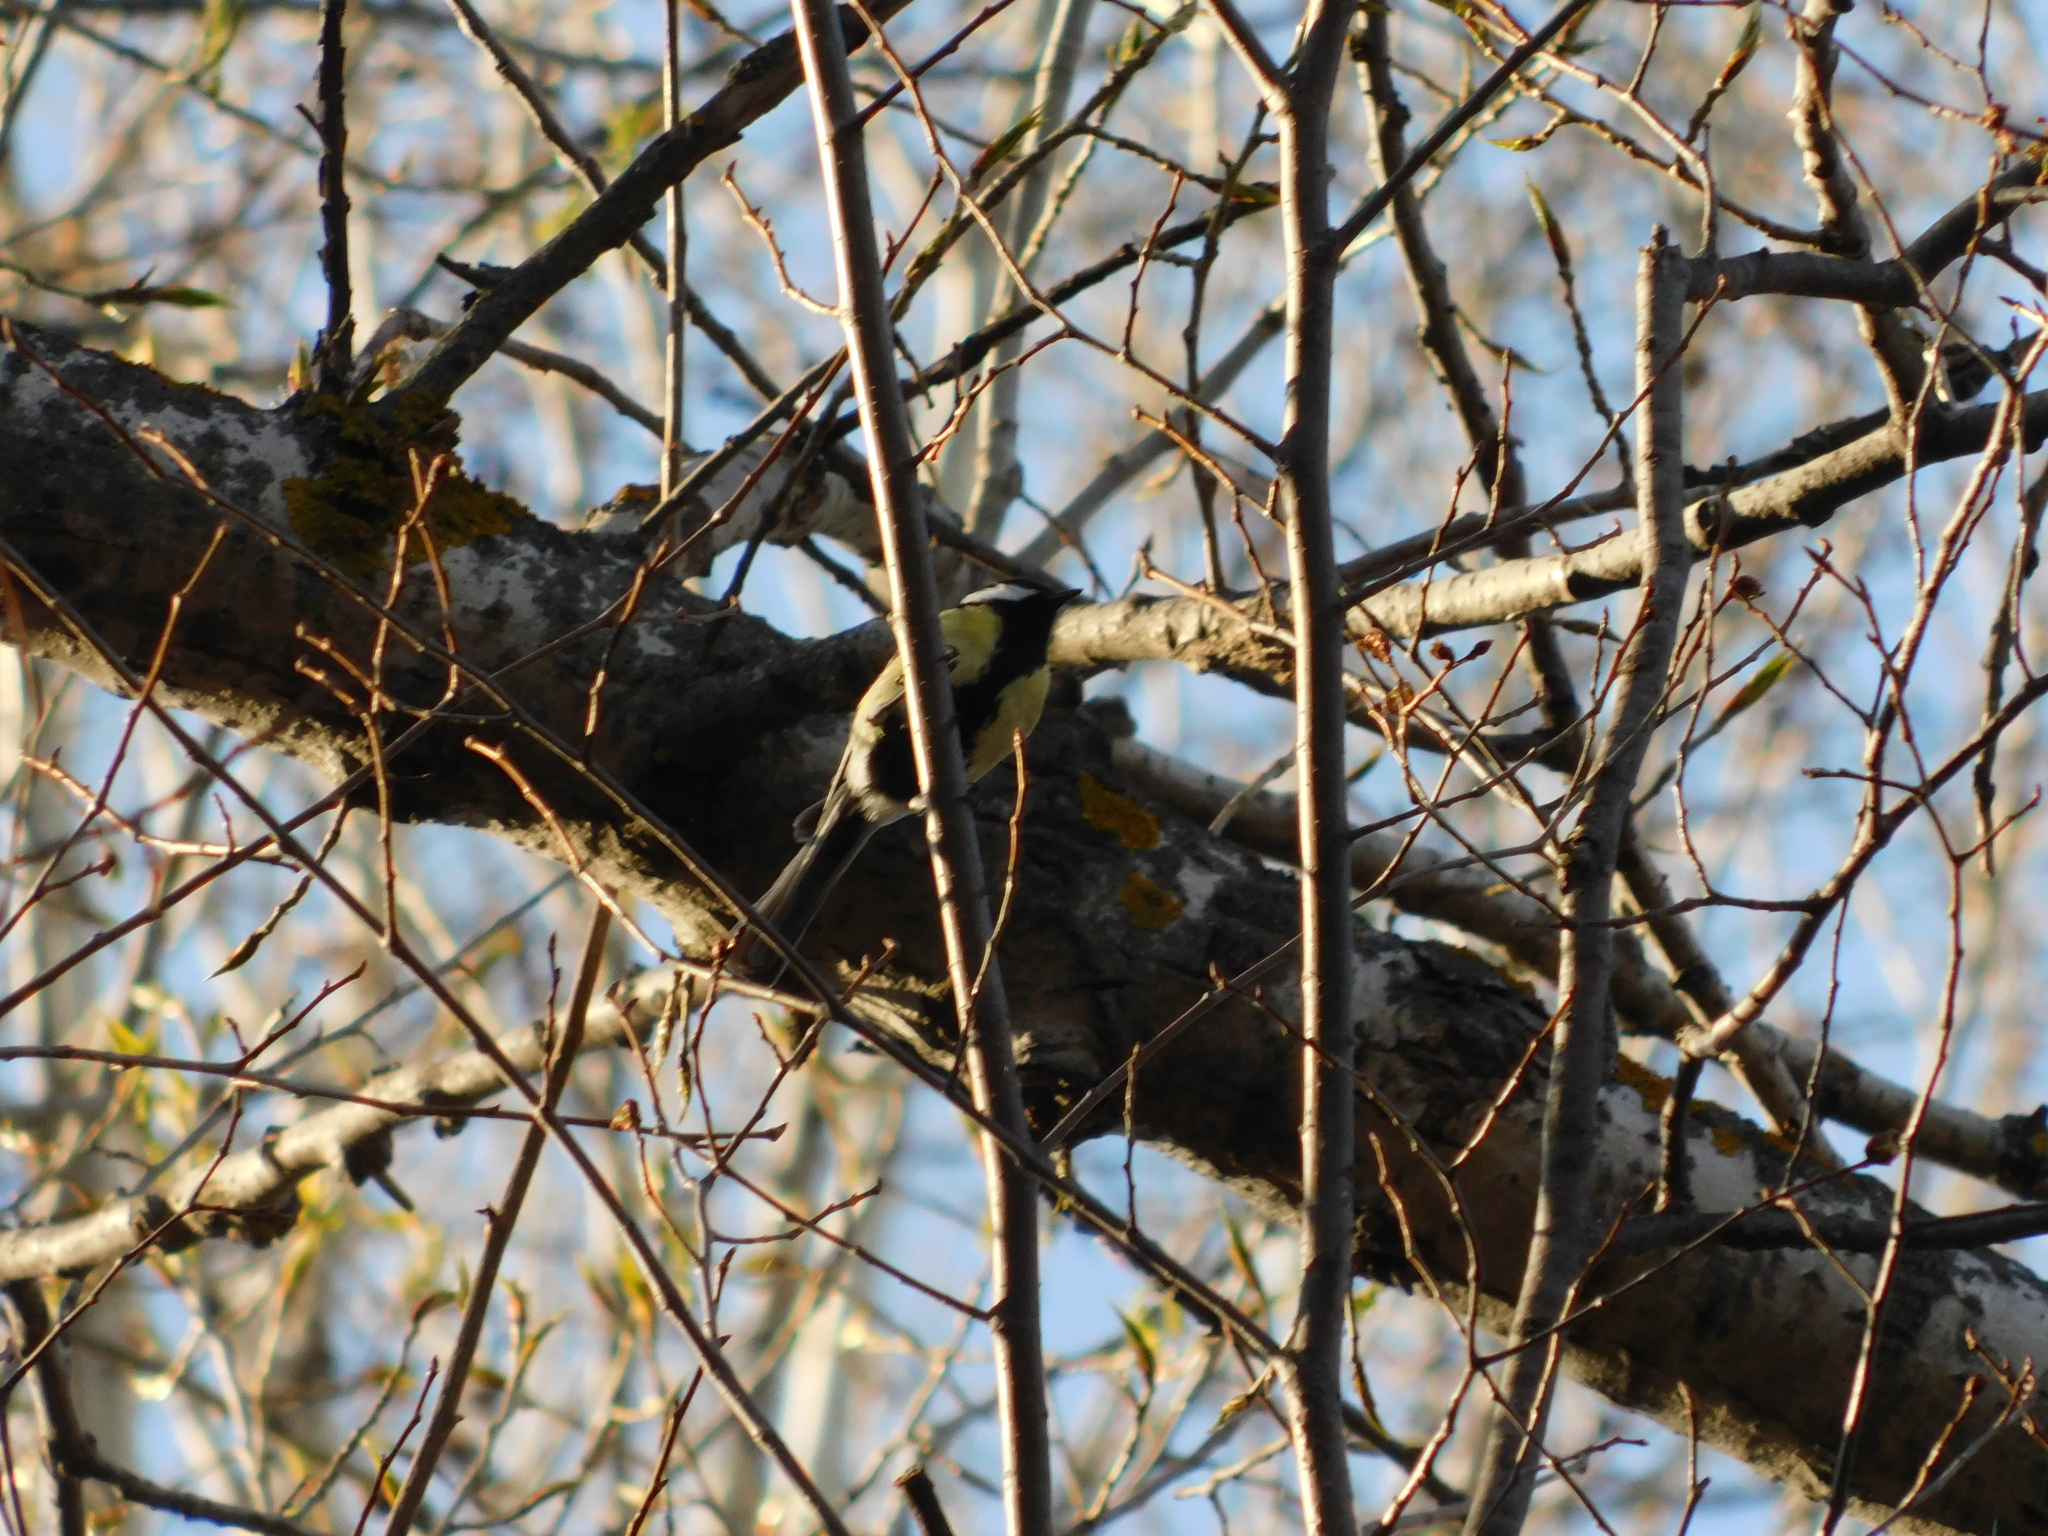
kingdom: Animalia
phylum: Chordata
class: Aves
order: Passeriformes
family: Paridae
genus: Parus
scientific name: Parus major
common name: Great tit
